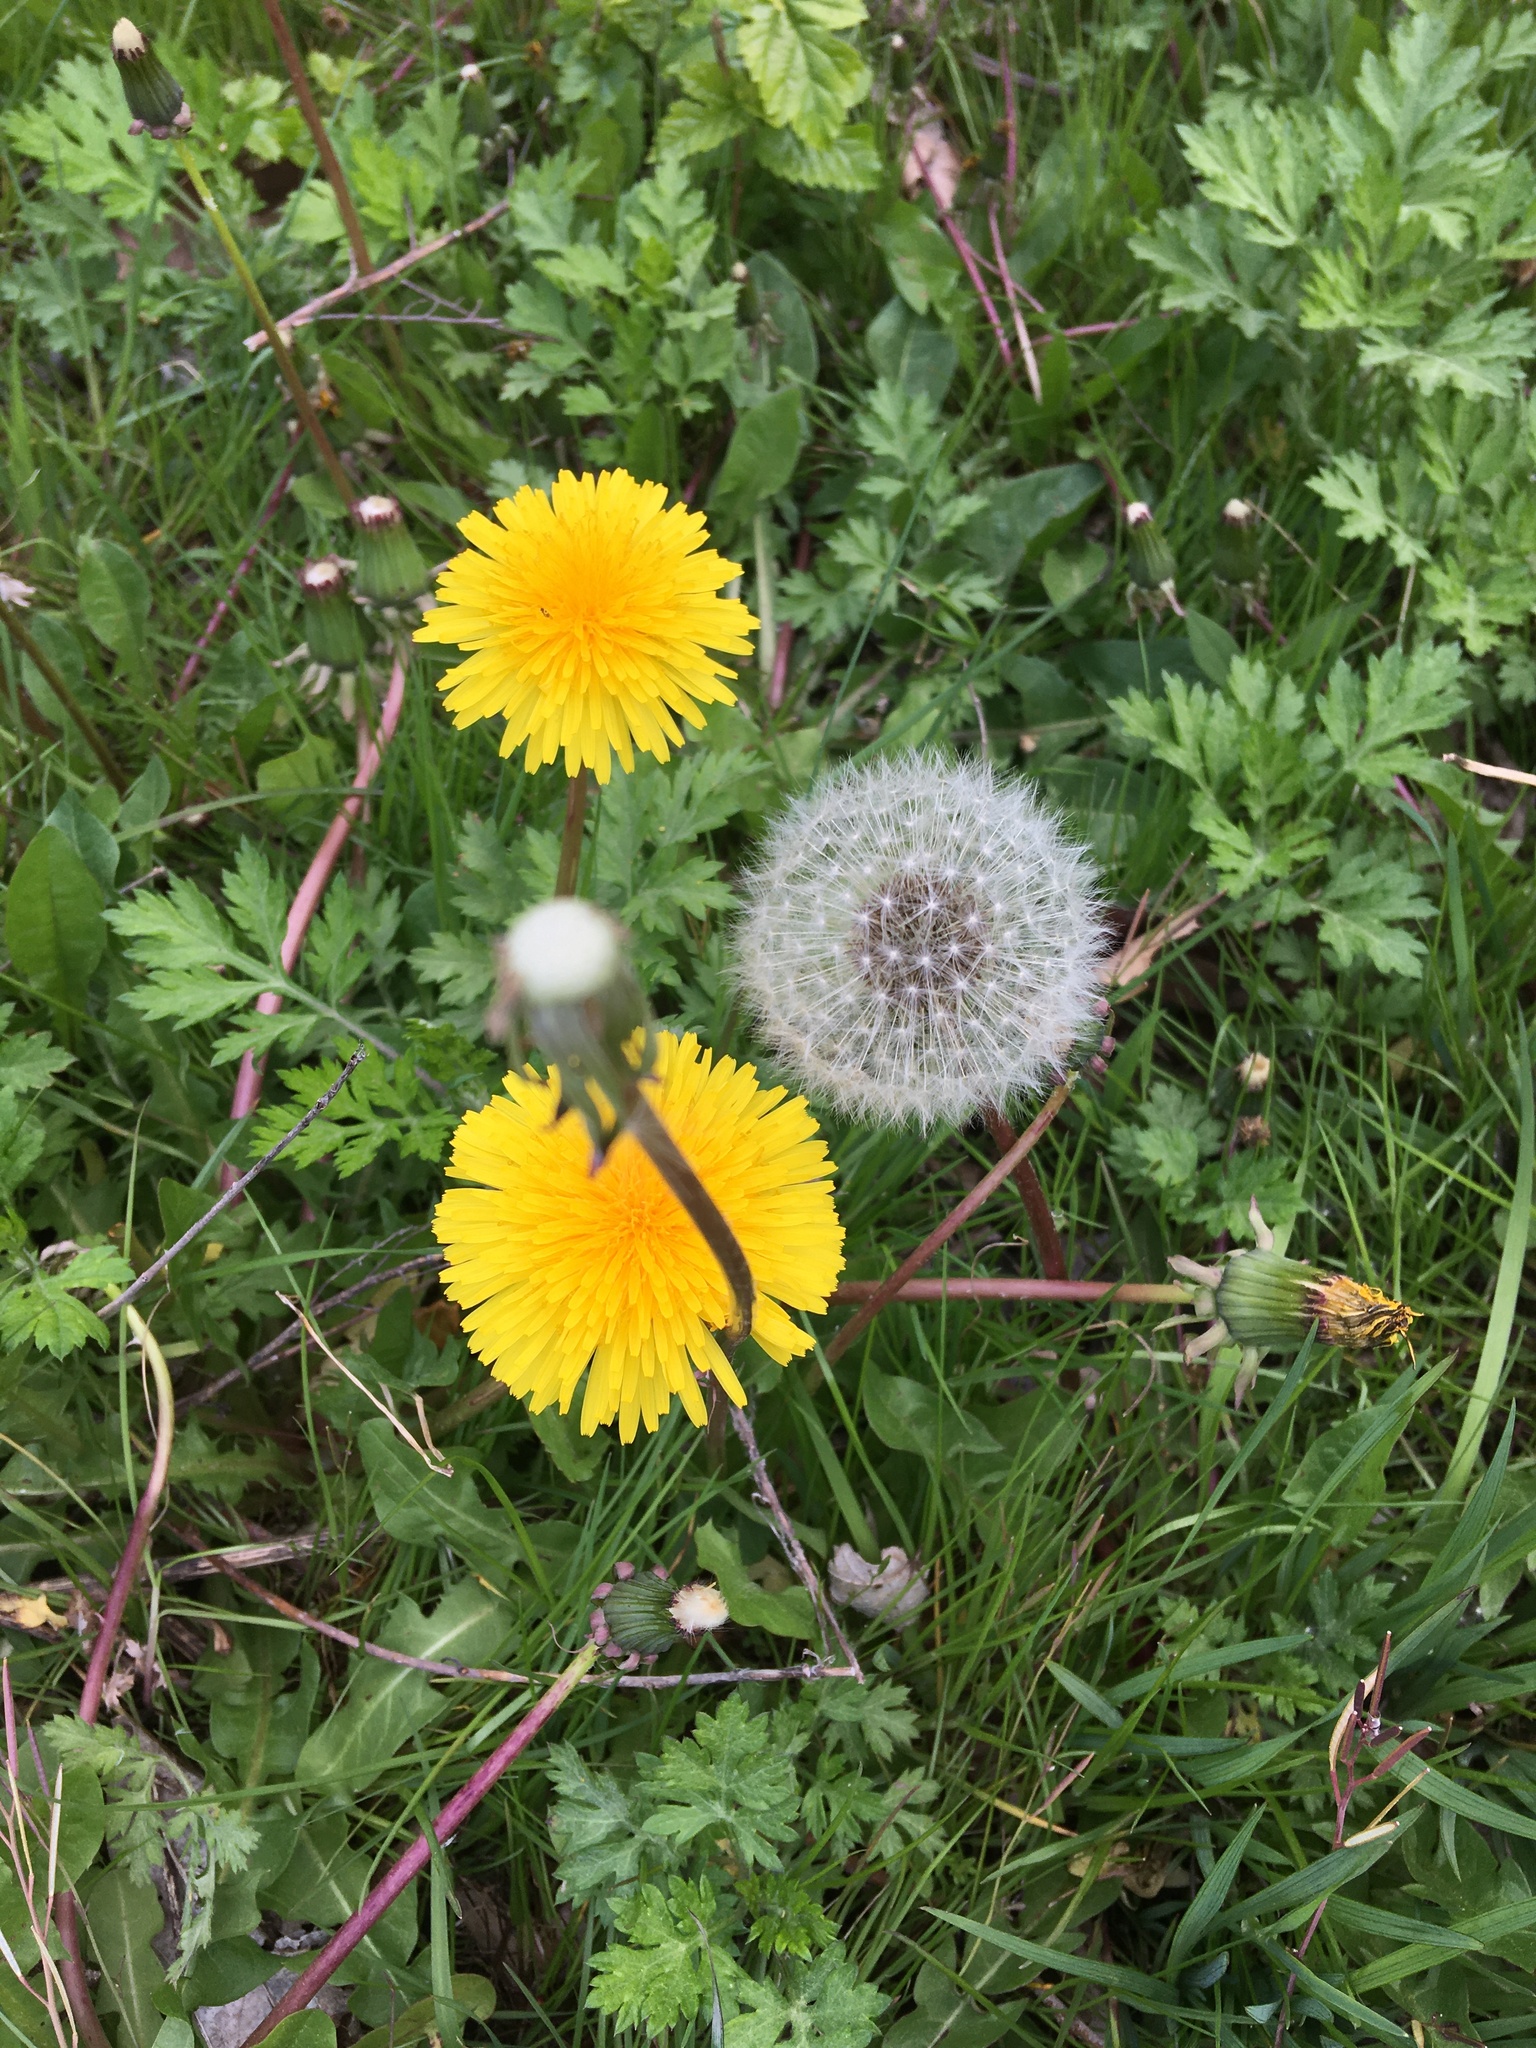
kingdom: Plantae
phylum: Tracheophyta
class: Magnoliopsida
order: Asterales
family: Asteraceae
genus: Taraxacum
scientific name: Taraxacum officinale
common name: Common dandelion
